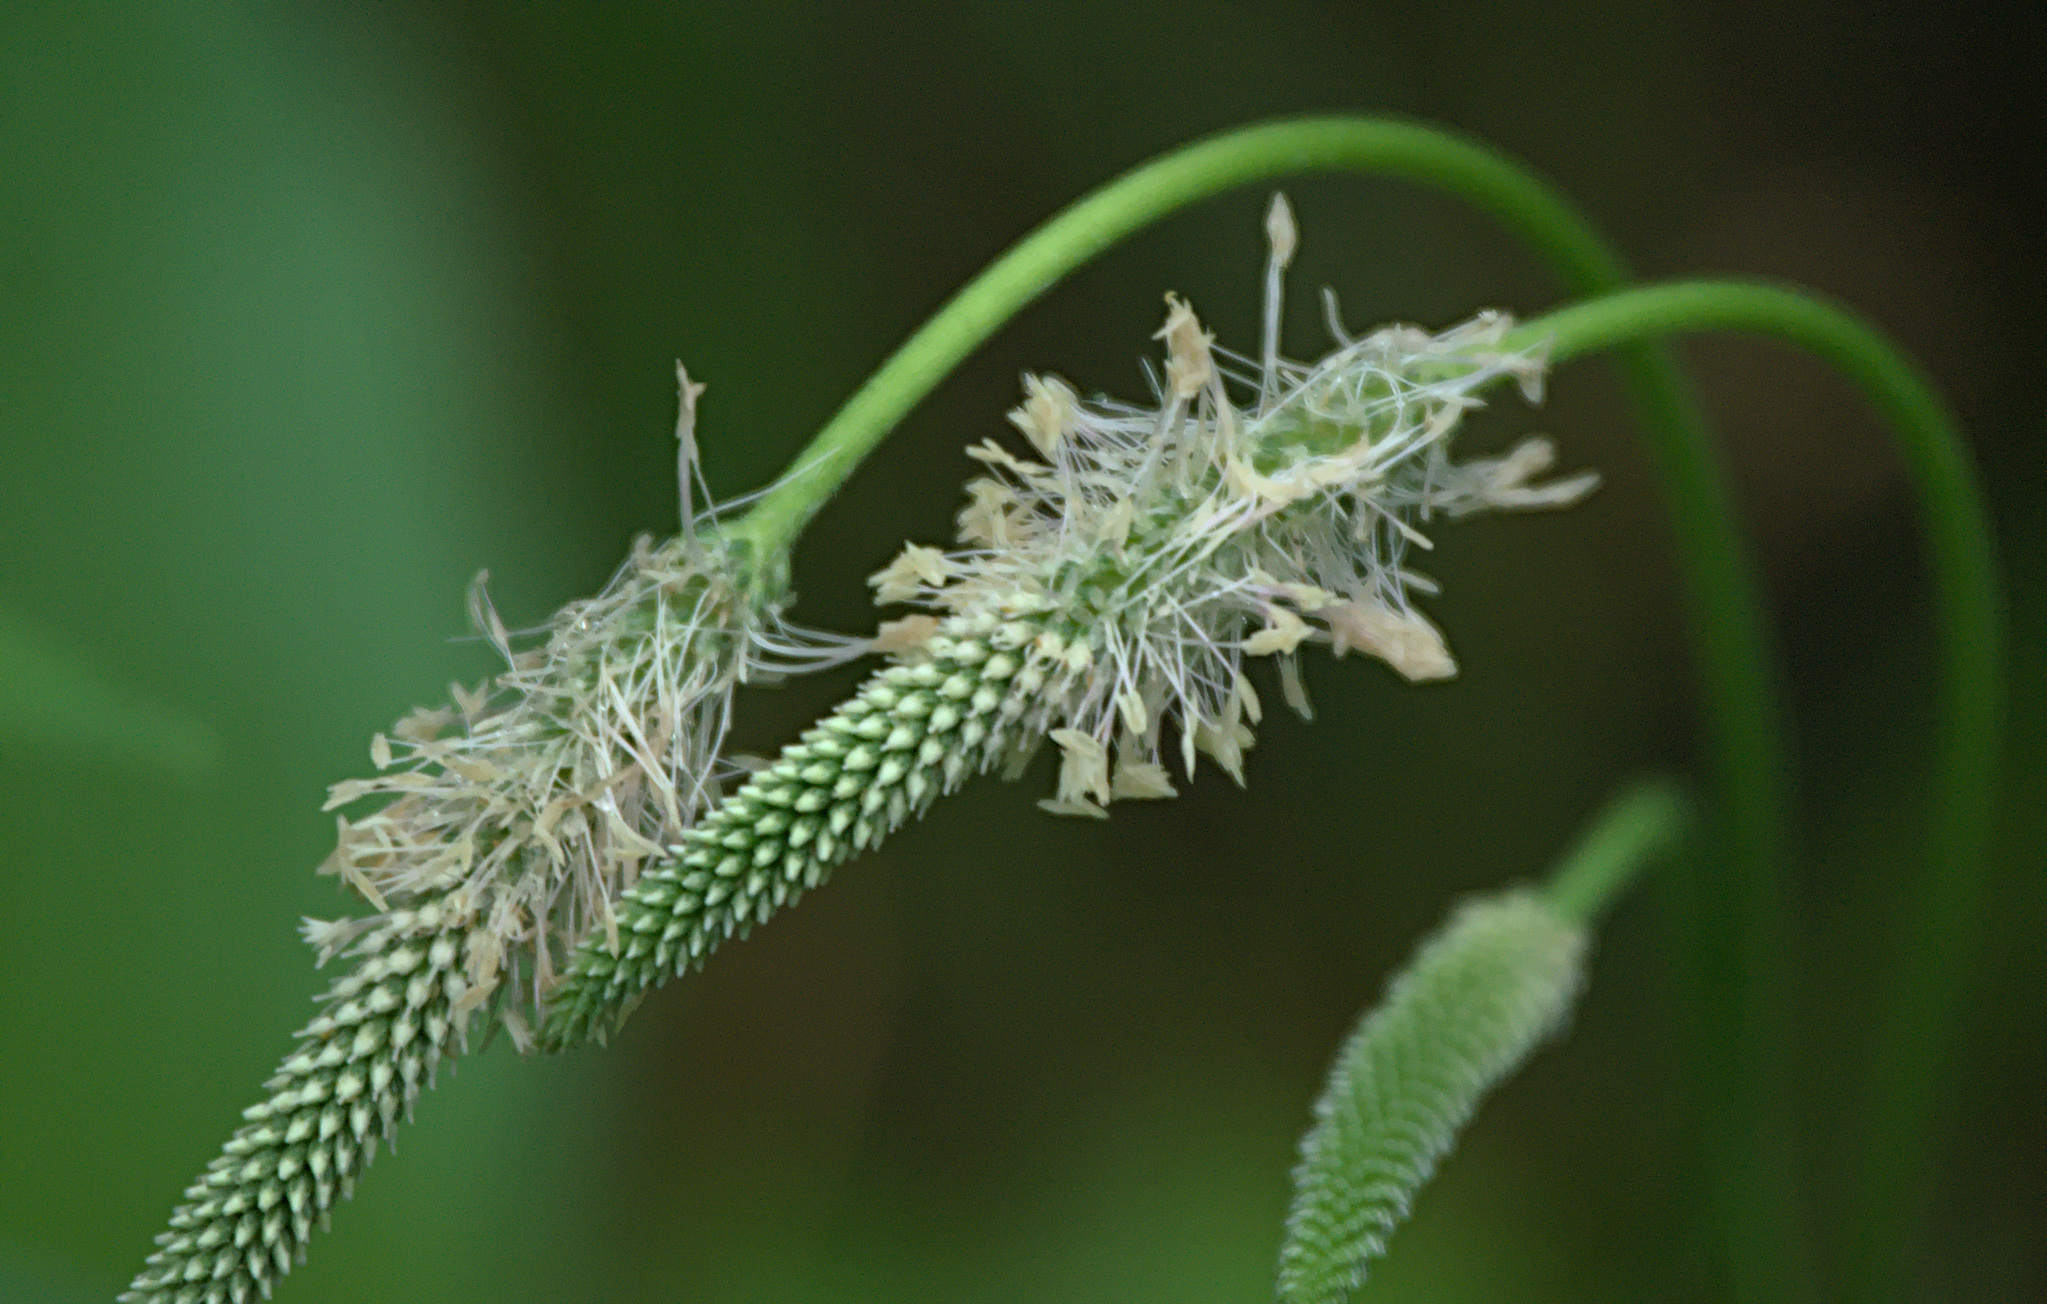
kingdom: Plantae
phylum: Tracheophyta
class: Magnoliopsida
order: Lamiales
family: Plantaginaceae
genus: Plantago
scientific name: Plantago urvillei
